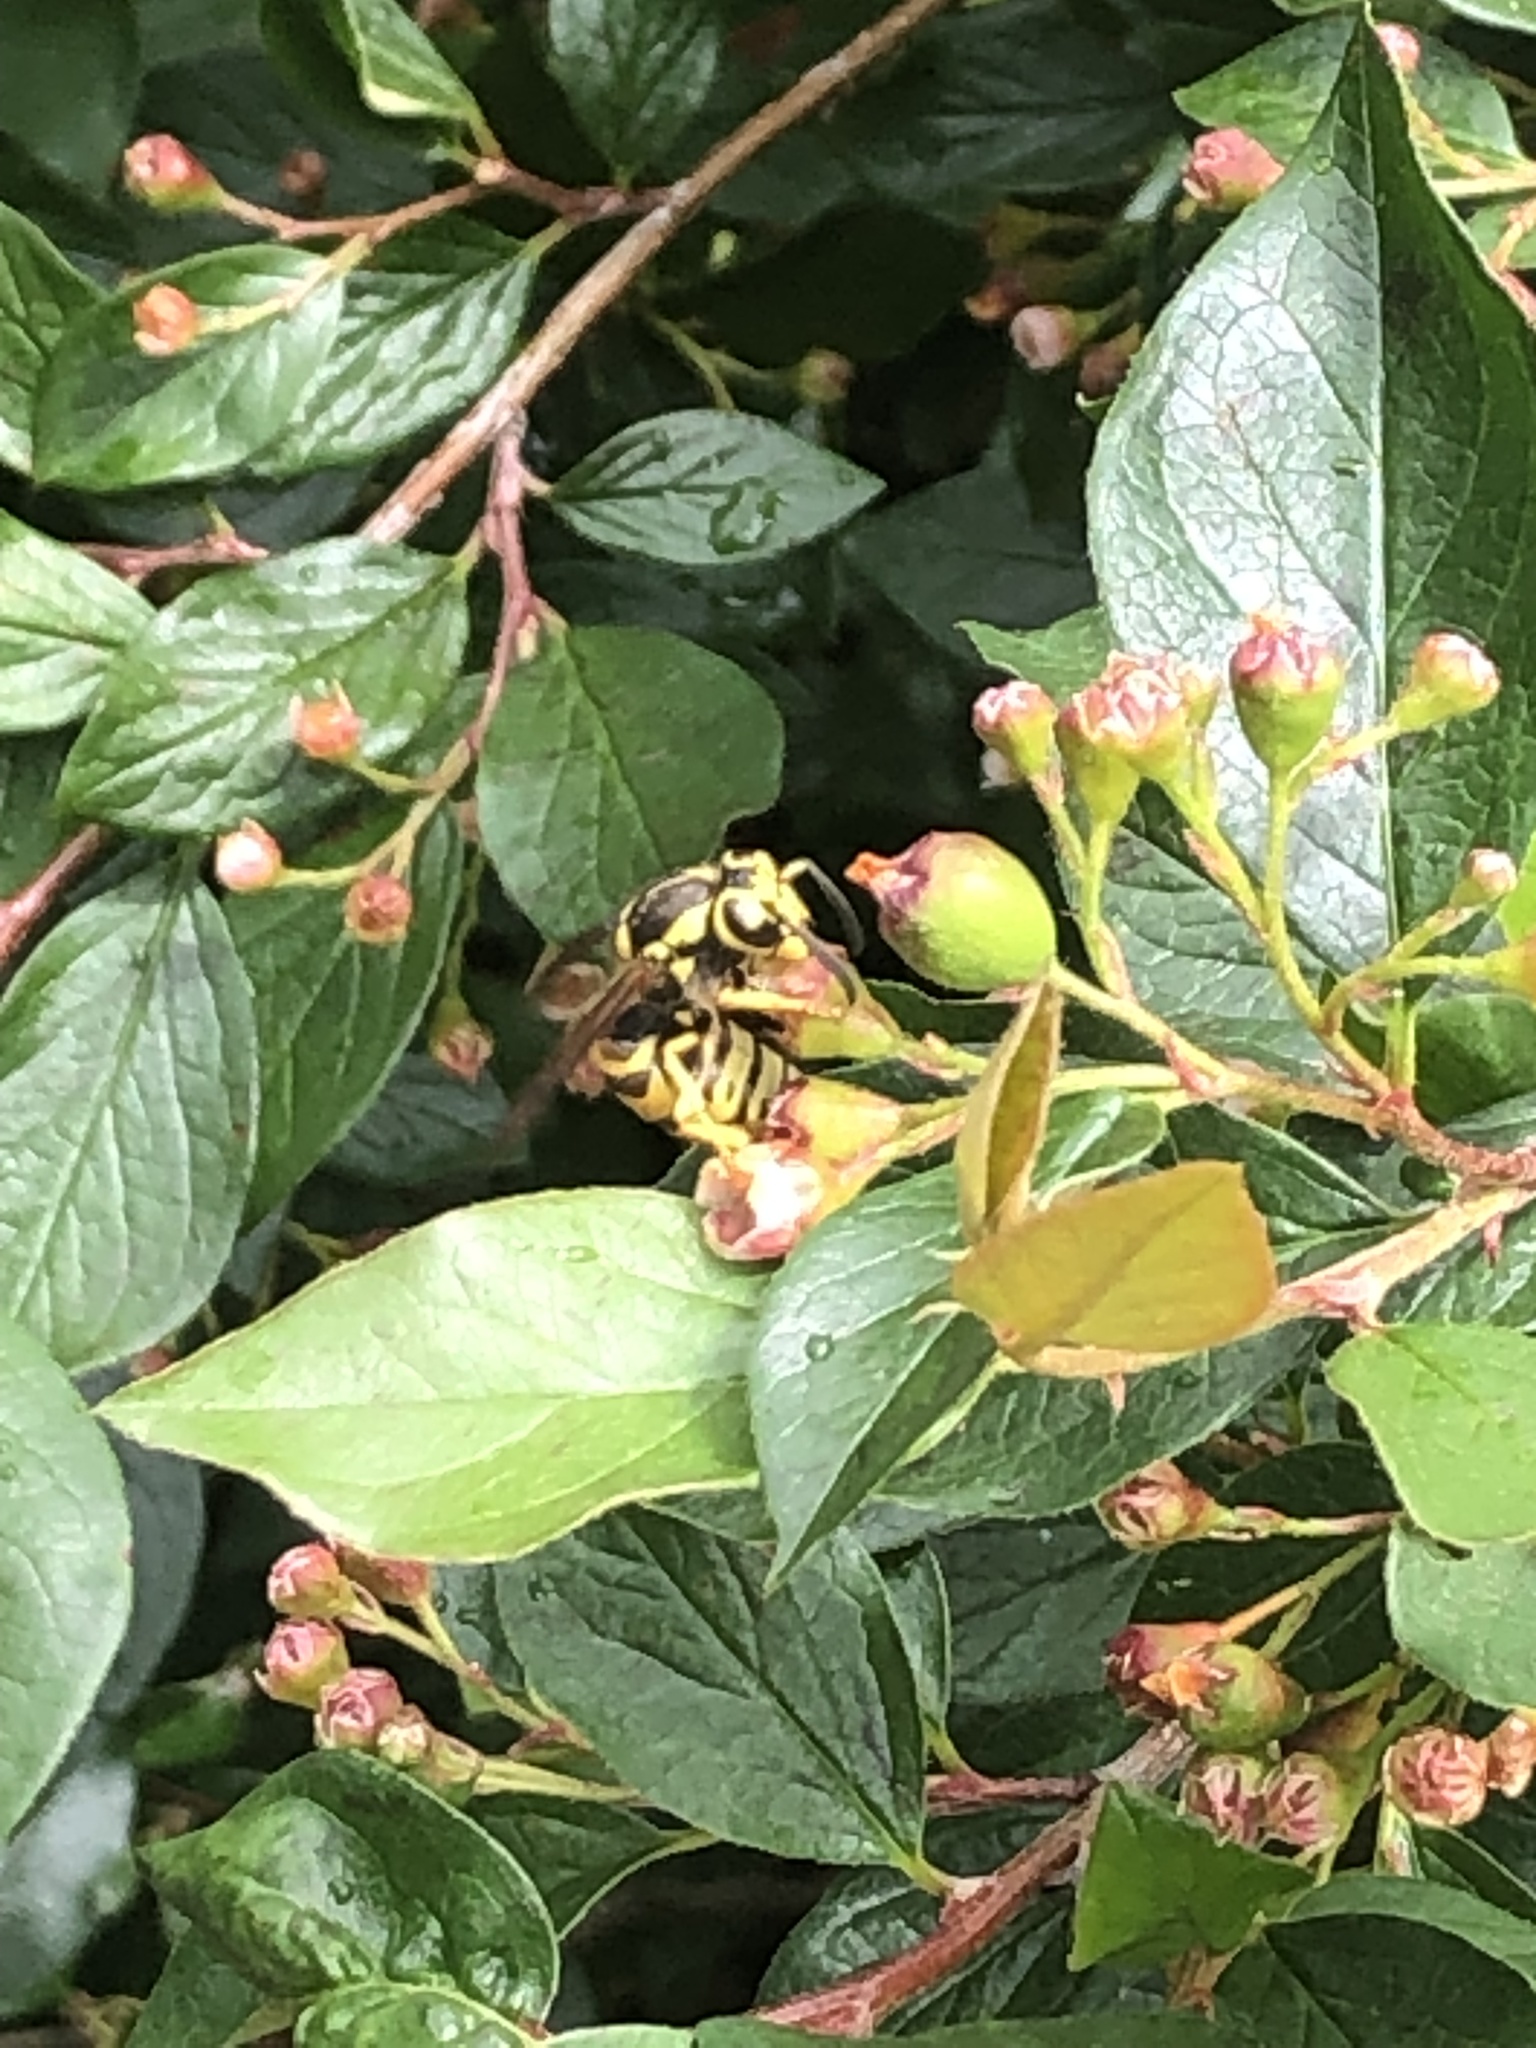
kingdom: Animalia
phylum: Arthropoda
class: Insecta
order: Hymenoptera
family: Vespidae
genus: Vespula
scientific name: Vespula pensylvanica
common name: Western yellowjacket
